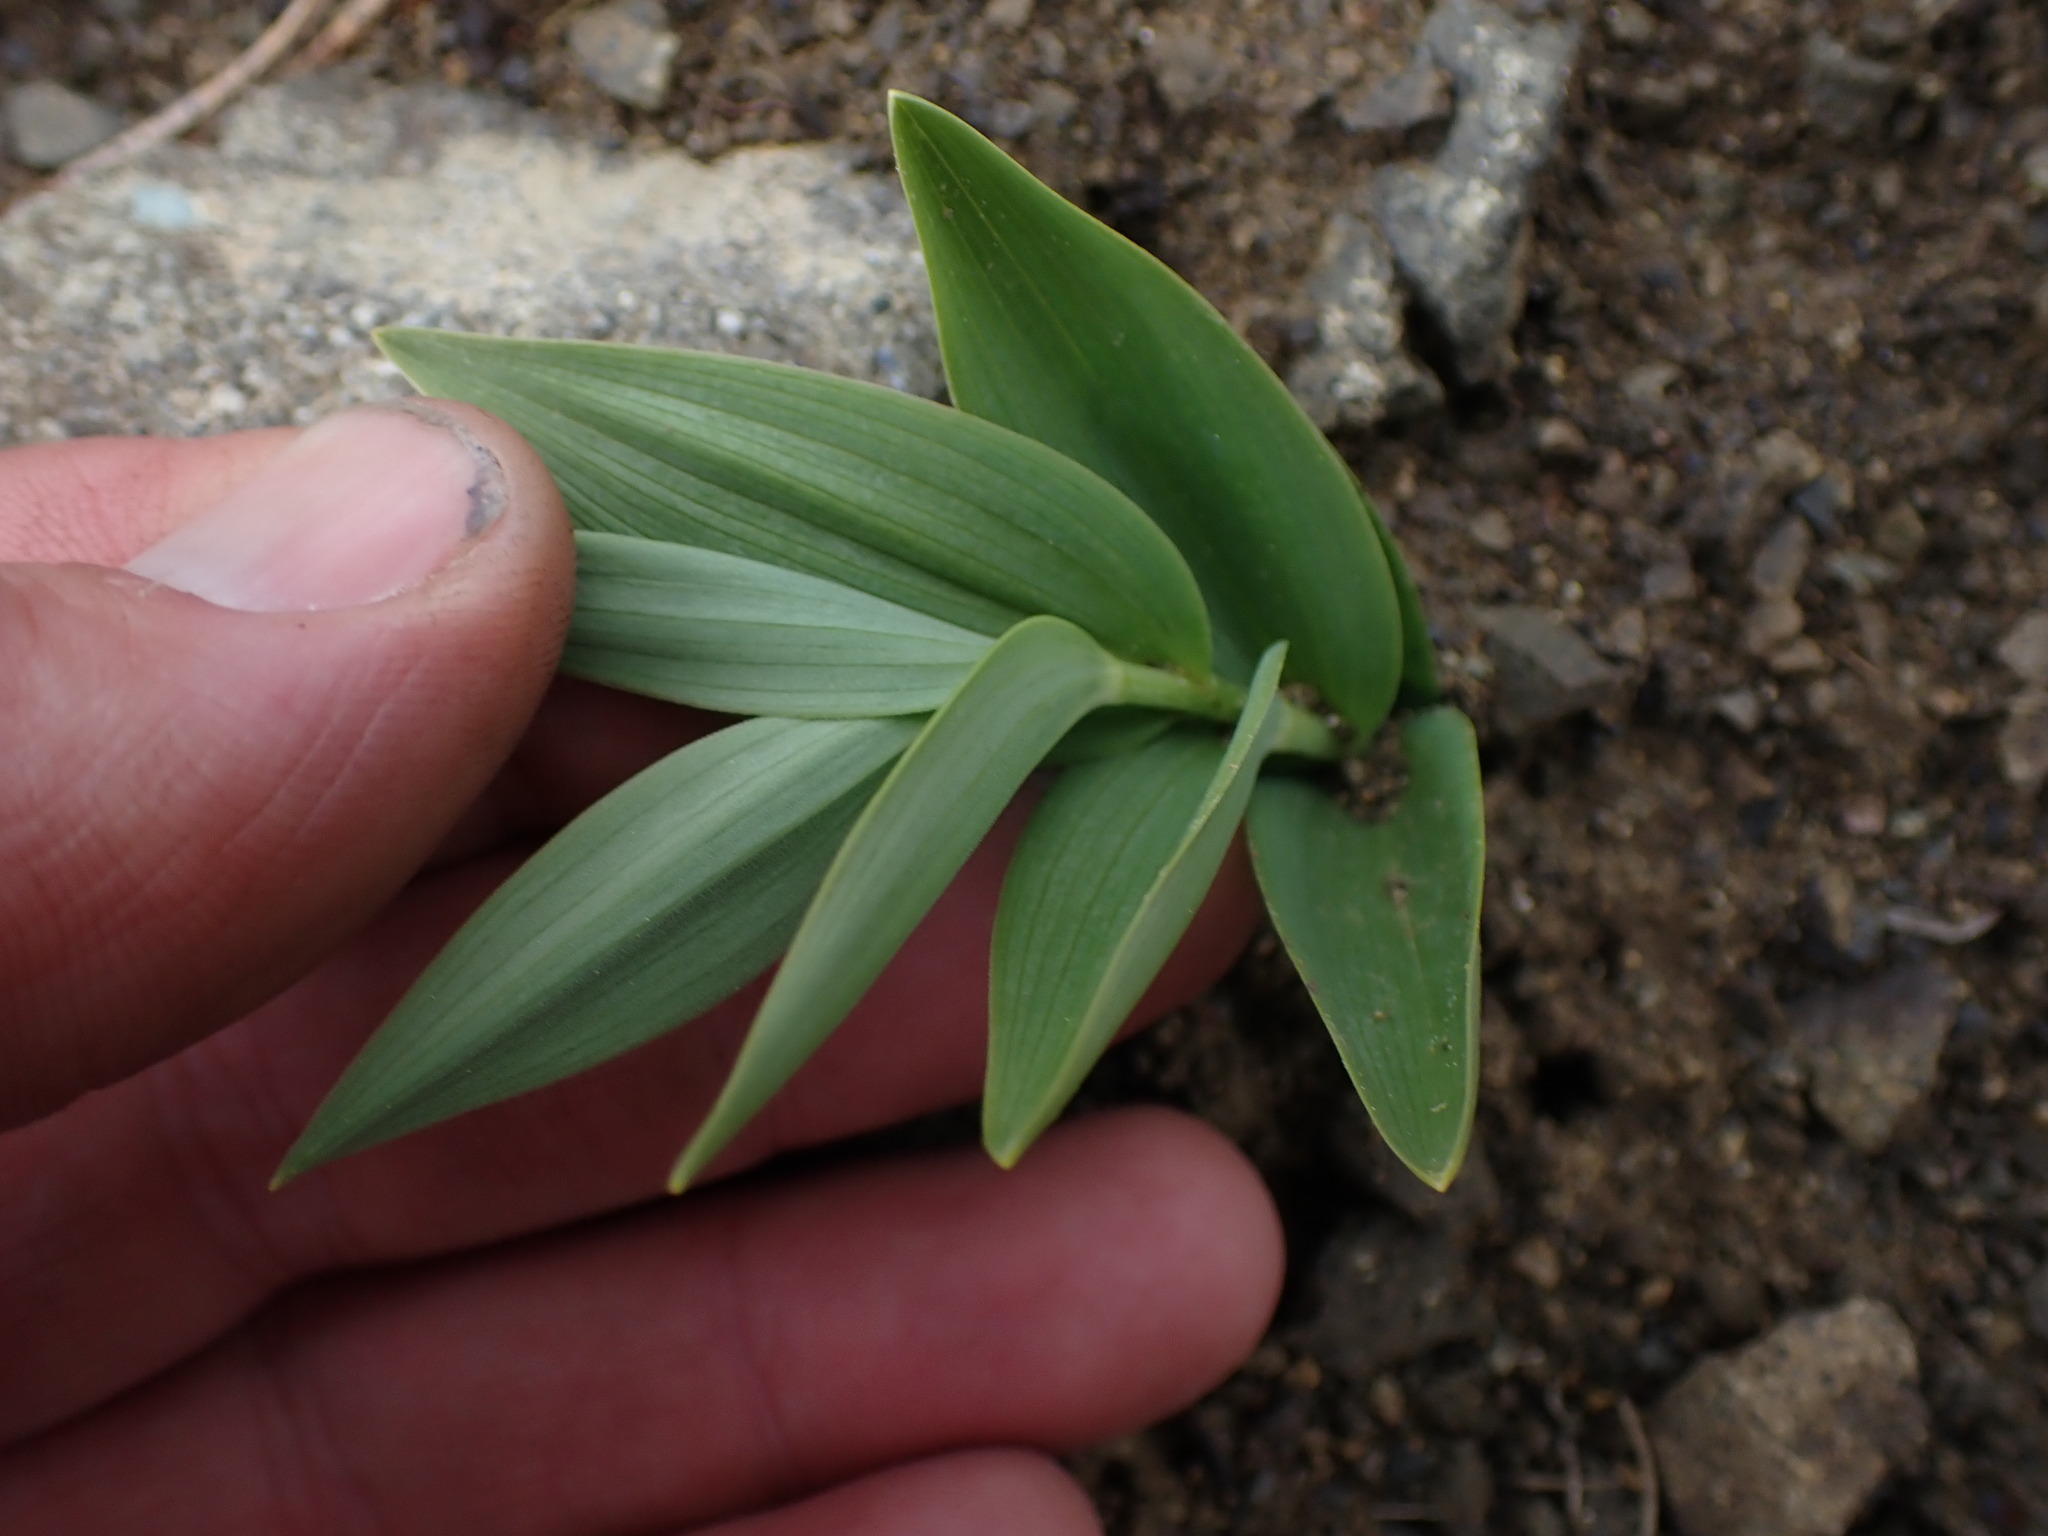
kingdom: Plantae
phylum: Tracheophyta
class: Liliopsida
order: Asparagales
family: Asparagaceae
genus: Maianthemum
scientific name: Maianthemum stellatum
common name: Little false solomon's seal
